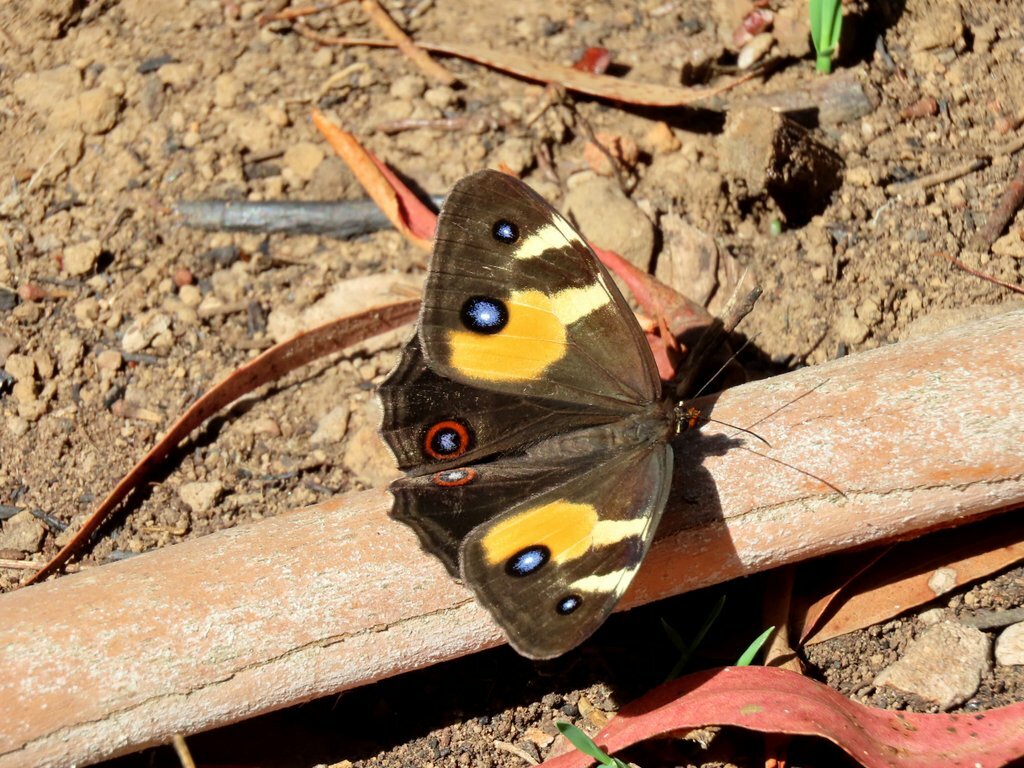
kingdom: Animalia
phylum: Arthropoda
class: Insecta
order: Lepidoptera
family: Nymphalidae
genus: Tisiphone
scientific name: Tisiphone abeona
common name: Swordgrass brown
